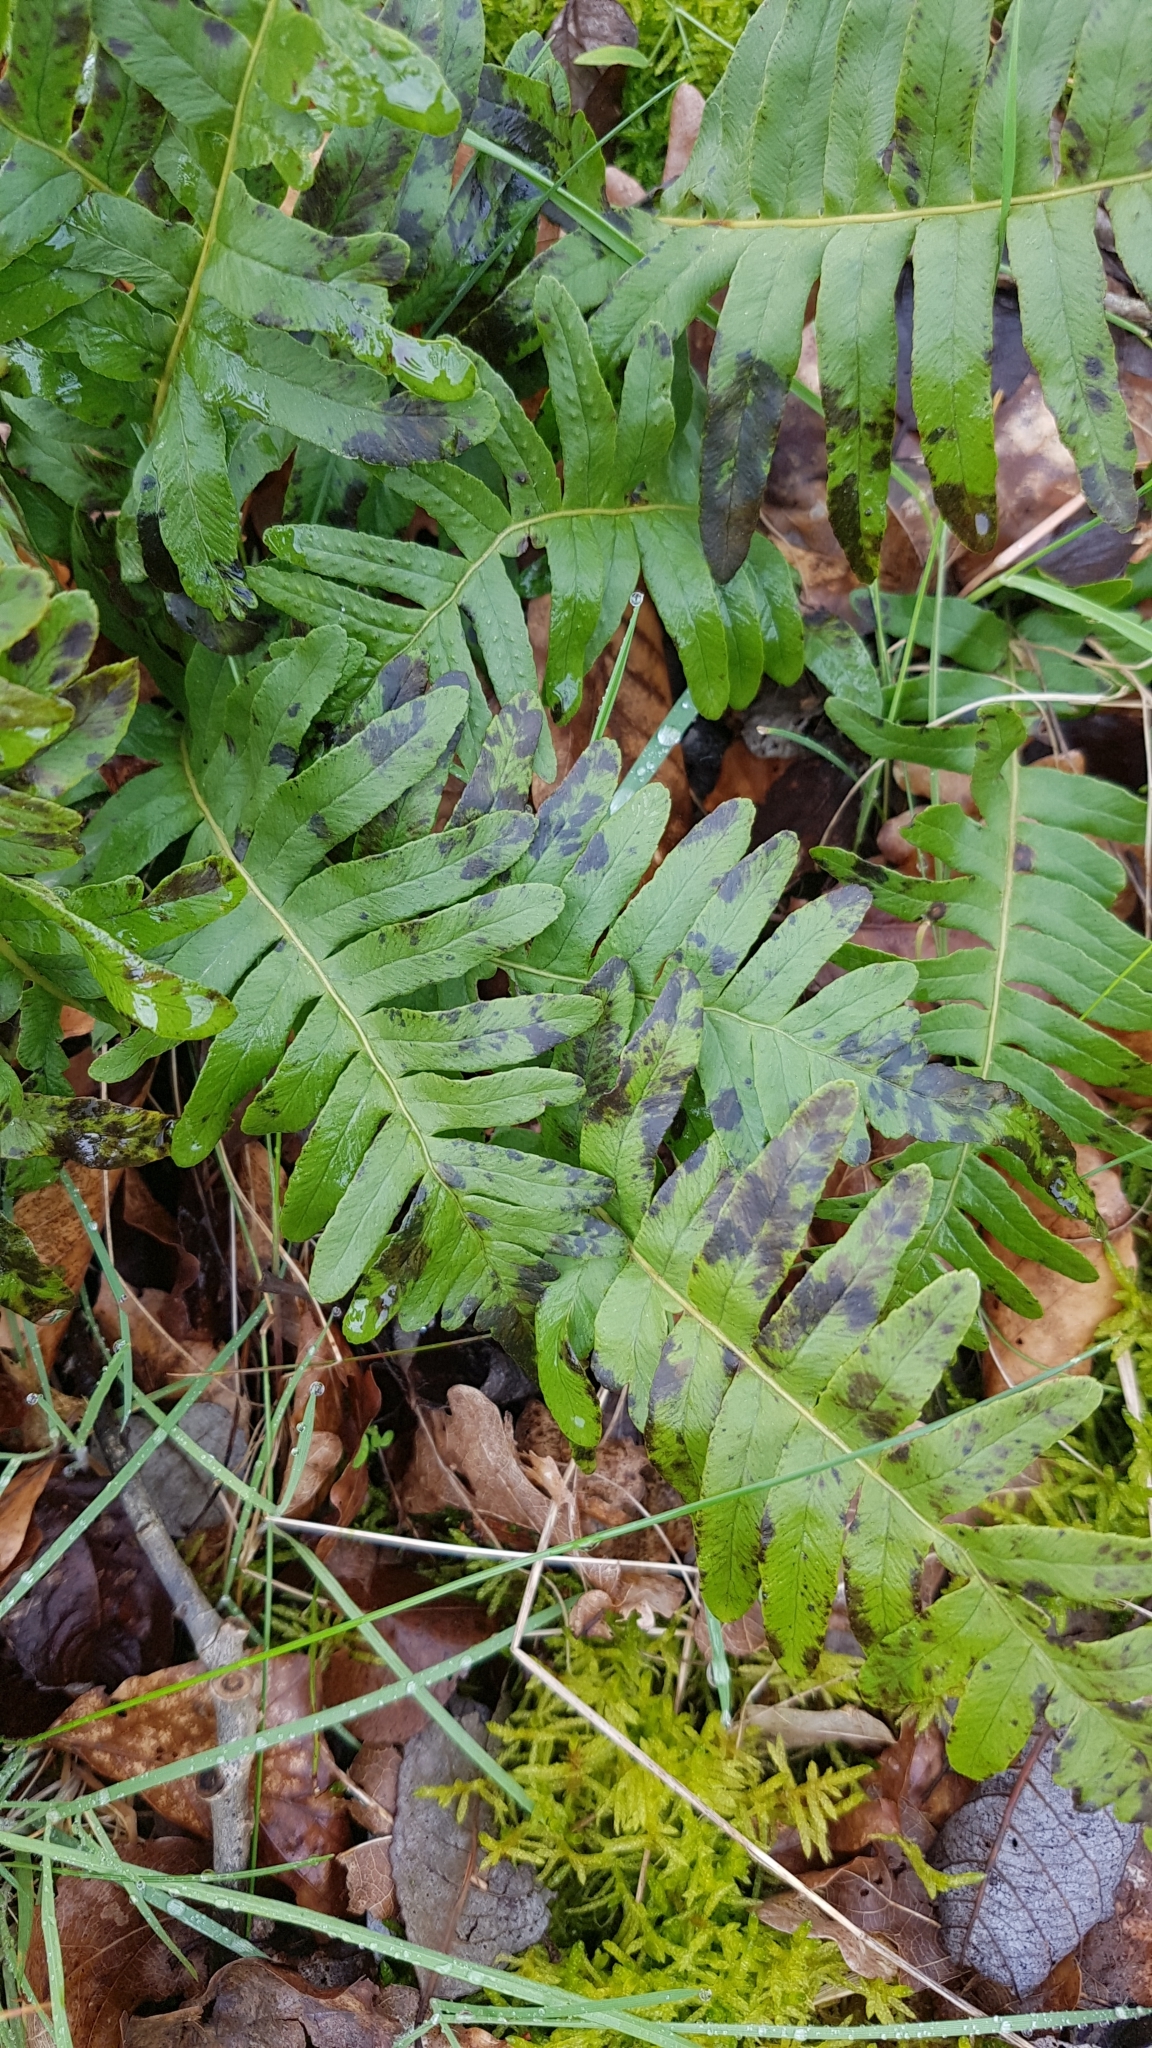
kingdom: Plantae
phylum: Tracheophyta
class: Polypodiopsida
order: Polypodiales
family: Polypodiaceae
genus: Polypodium
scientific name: Polypodium vulgare
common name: Common polypody
